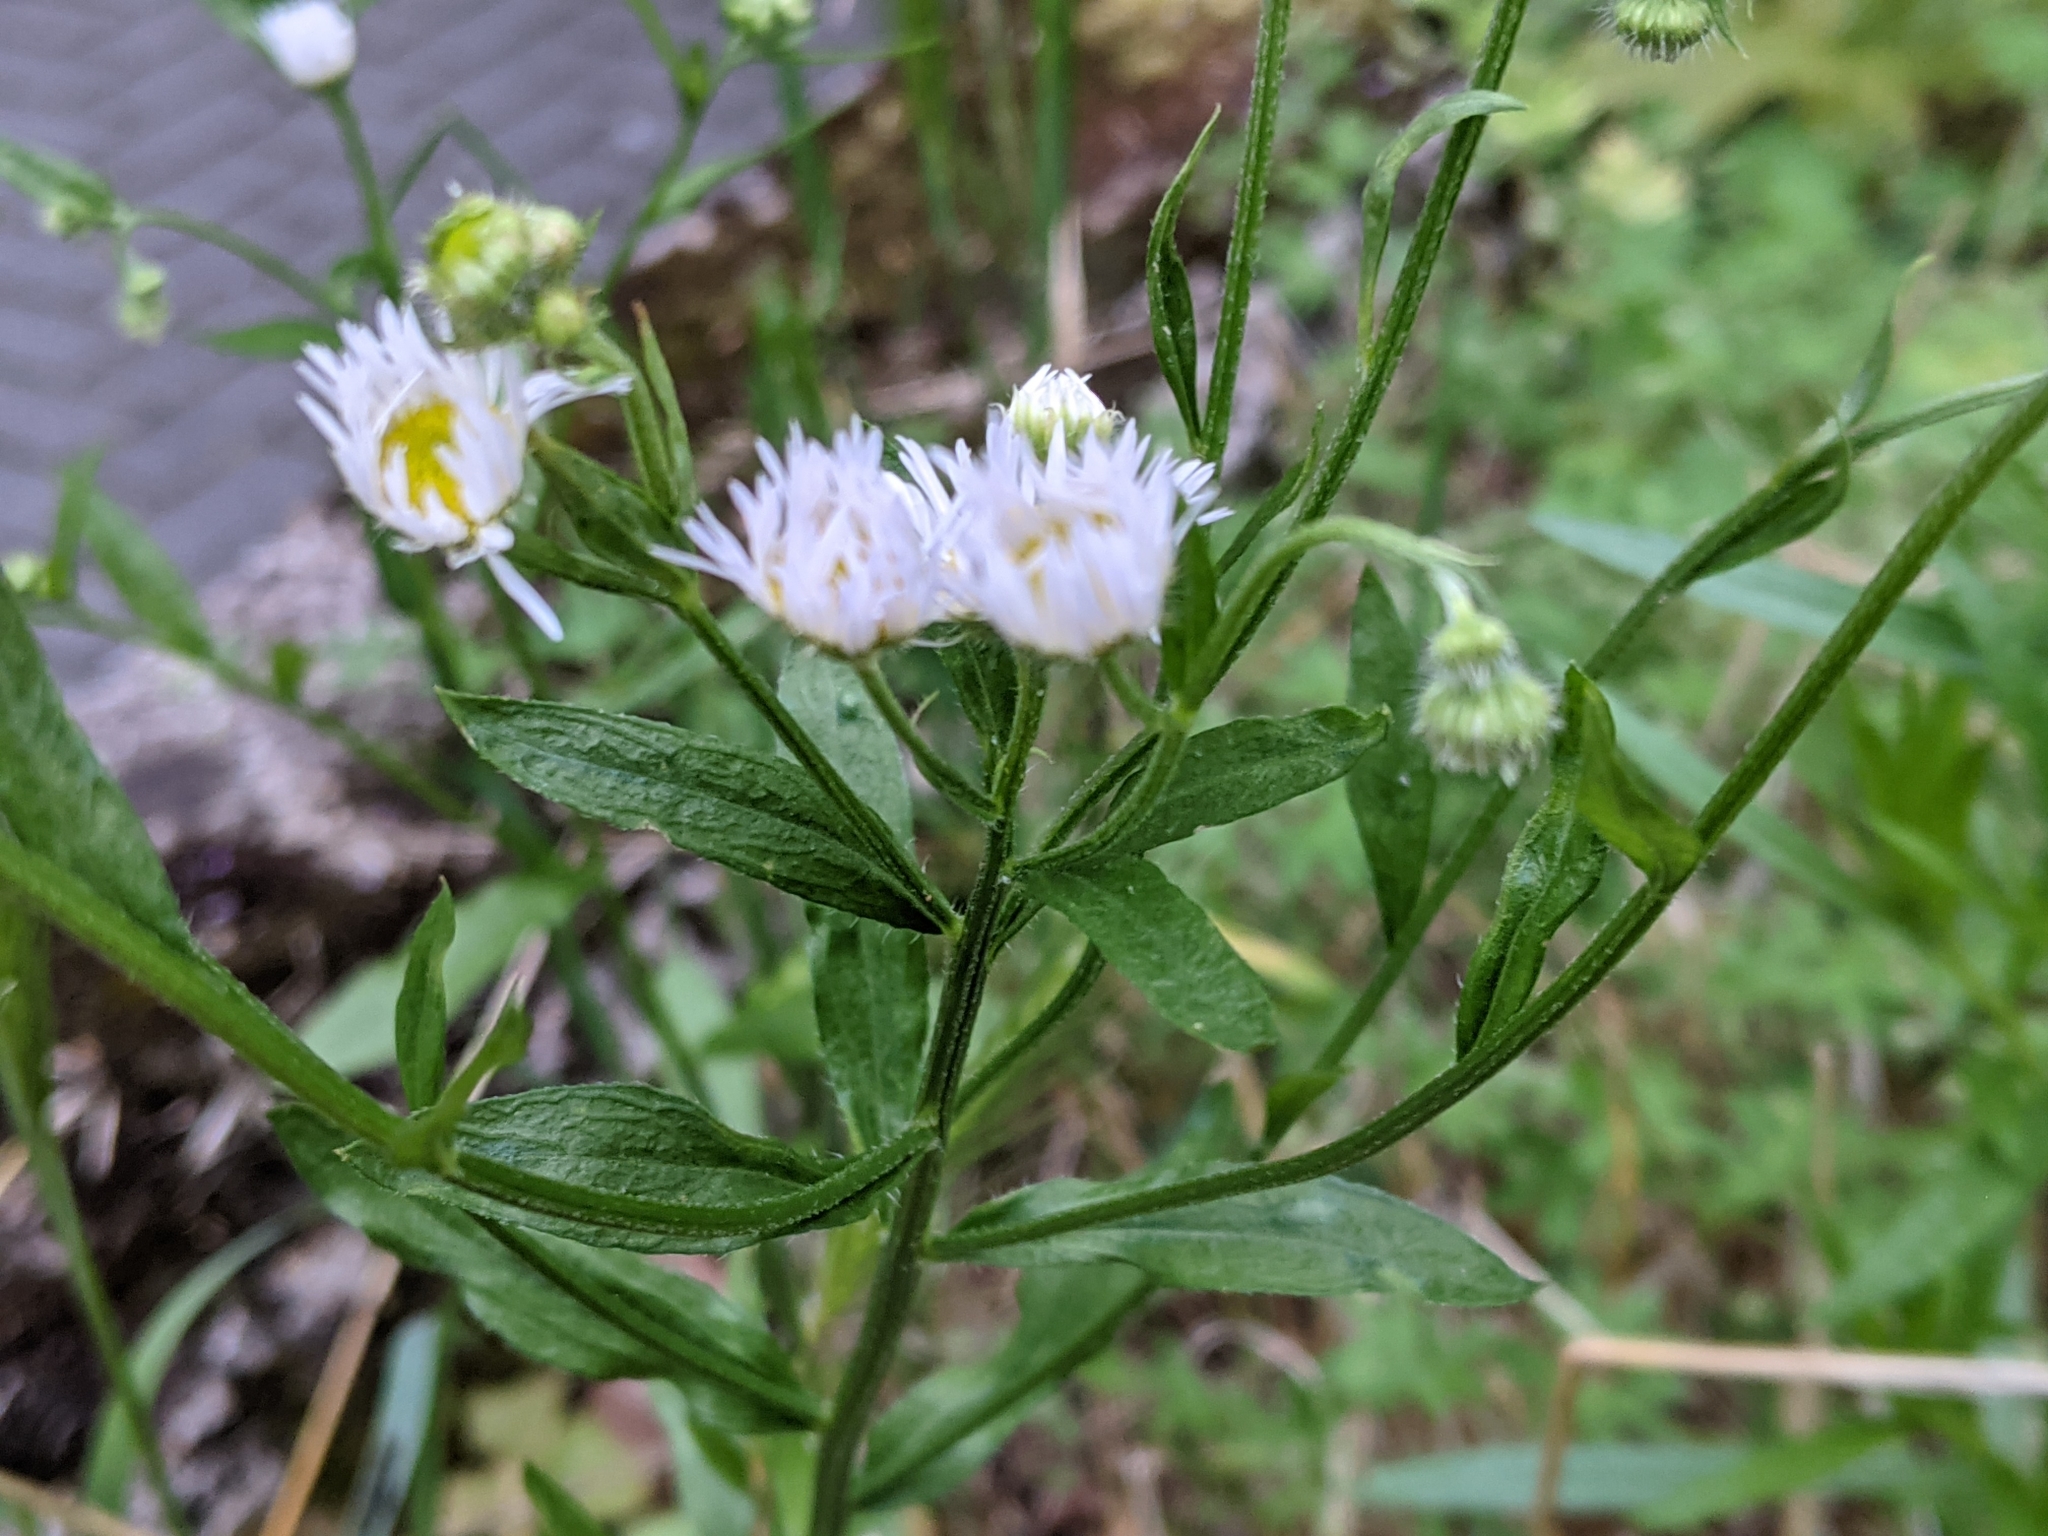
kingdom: Plantae
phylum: Tracheophyta
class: Magnoliopsida
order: Asterales
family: Asteraceae
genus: Erigeron
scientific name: Erigeron annuus
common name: Tall fleabane
